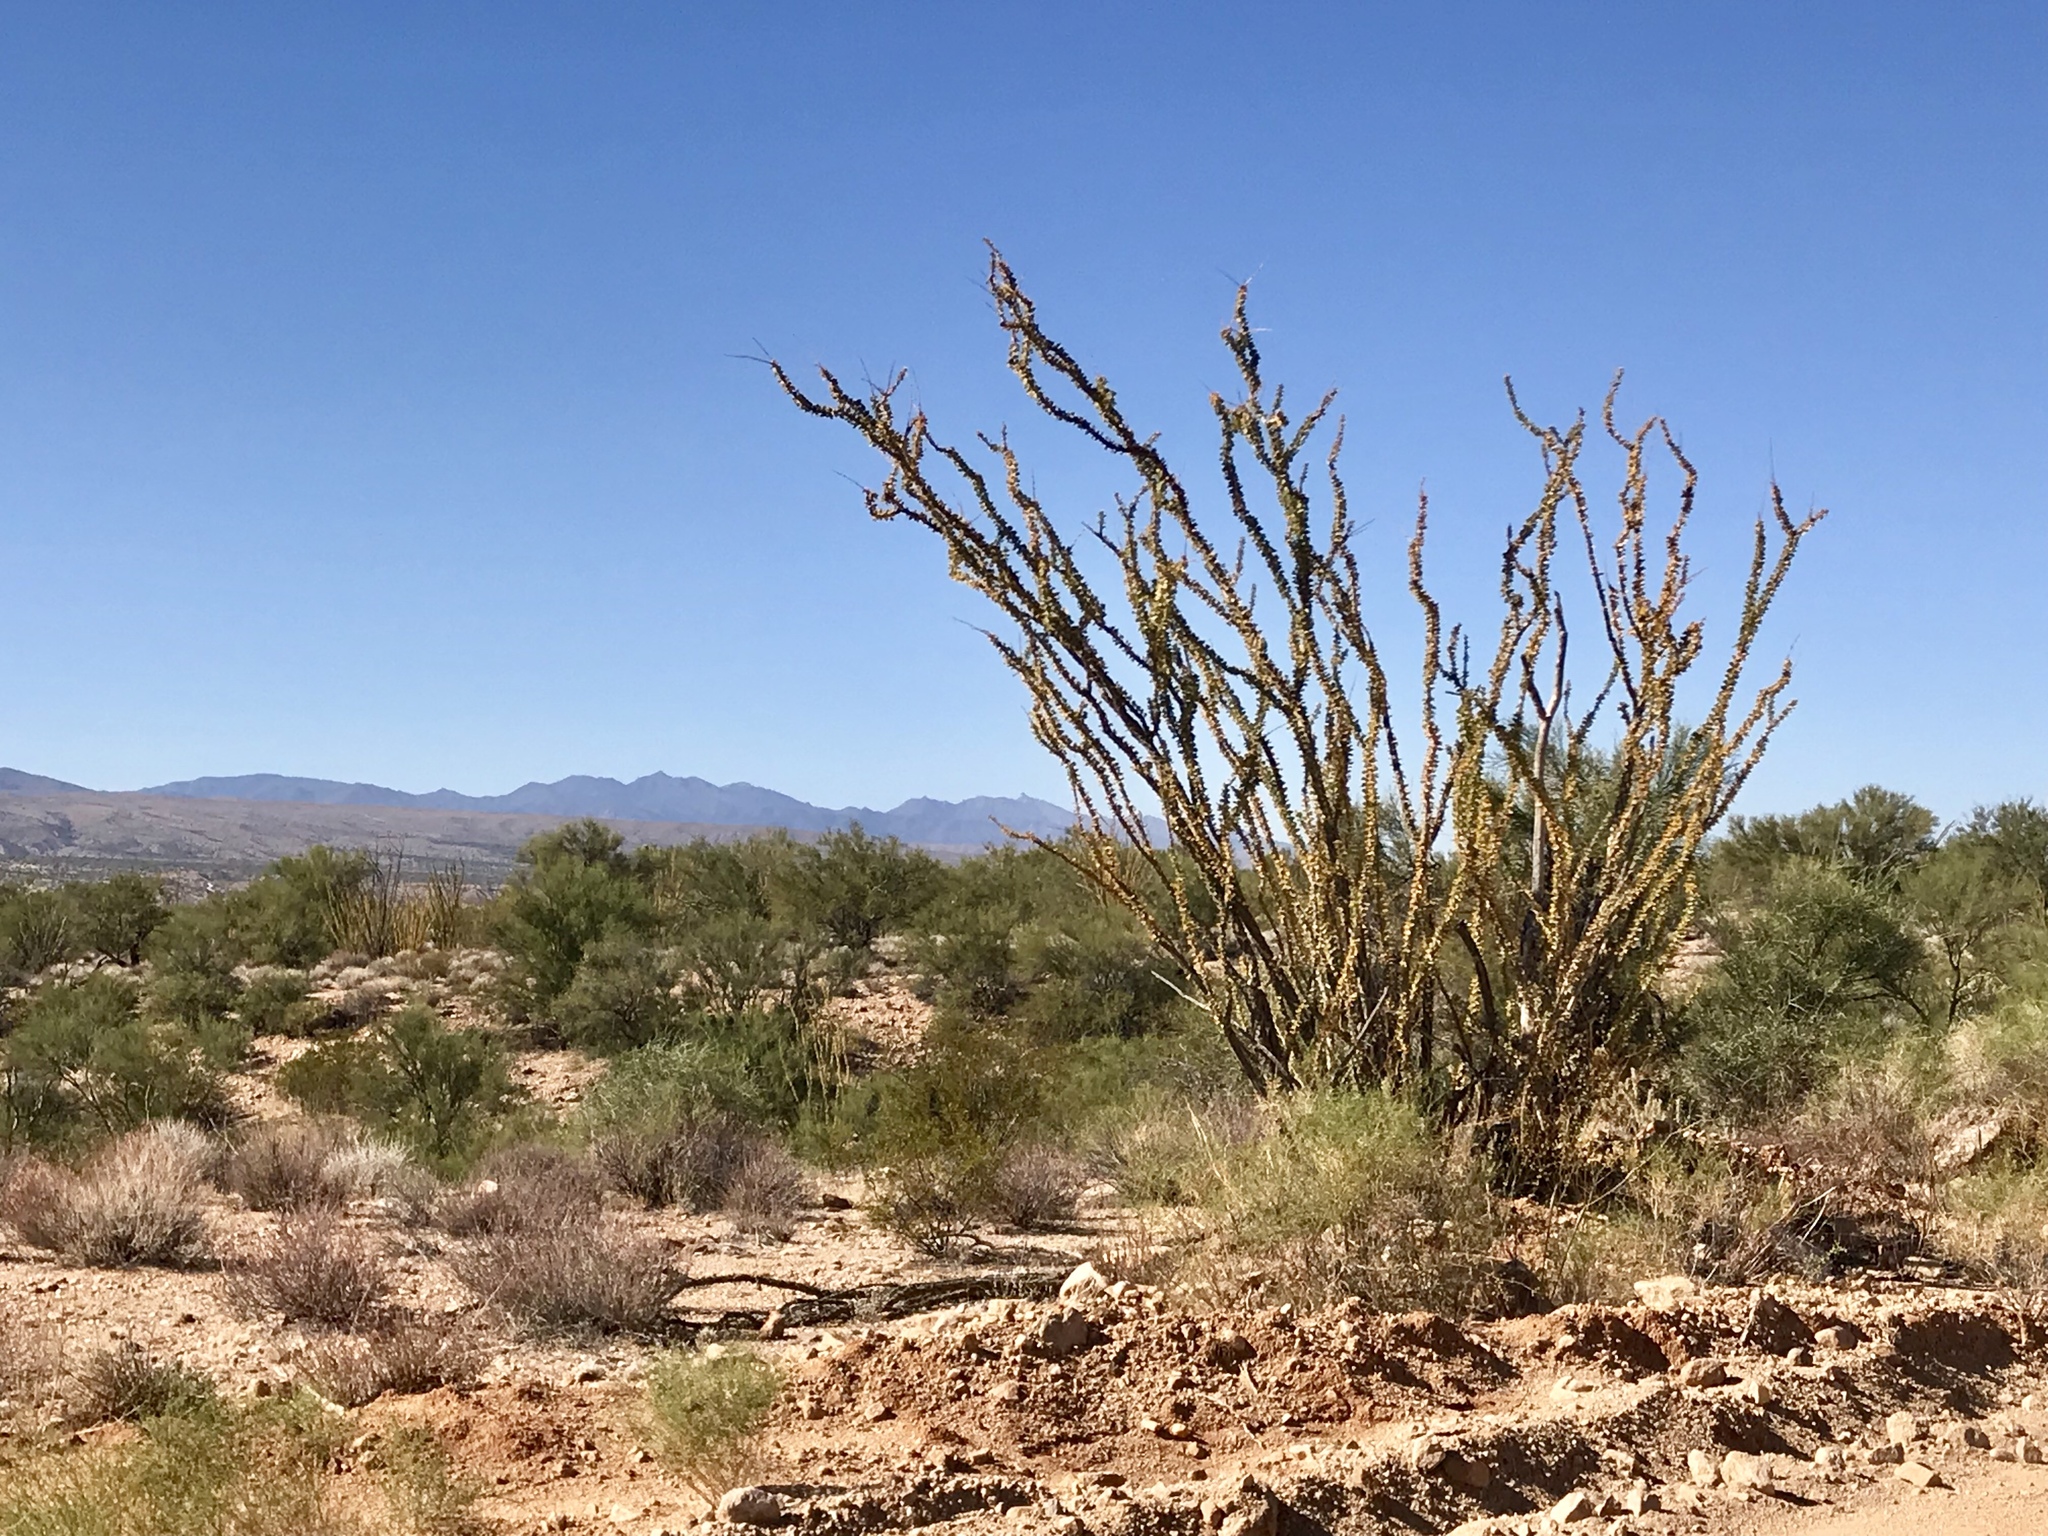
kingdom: Plantae
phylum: Tracheophyta
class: Magnoliopsida
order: Ericales
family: Fouquieriaceae
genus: Fouquieria
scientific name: Fouquieria splendens
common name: Vine-cactus
